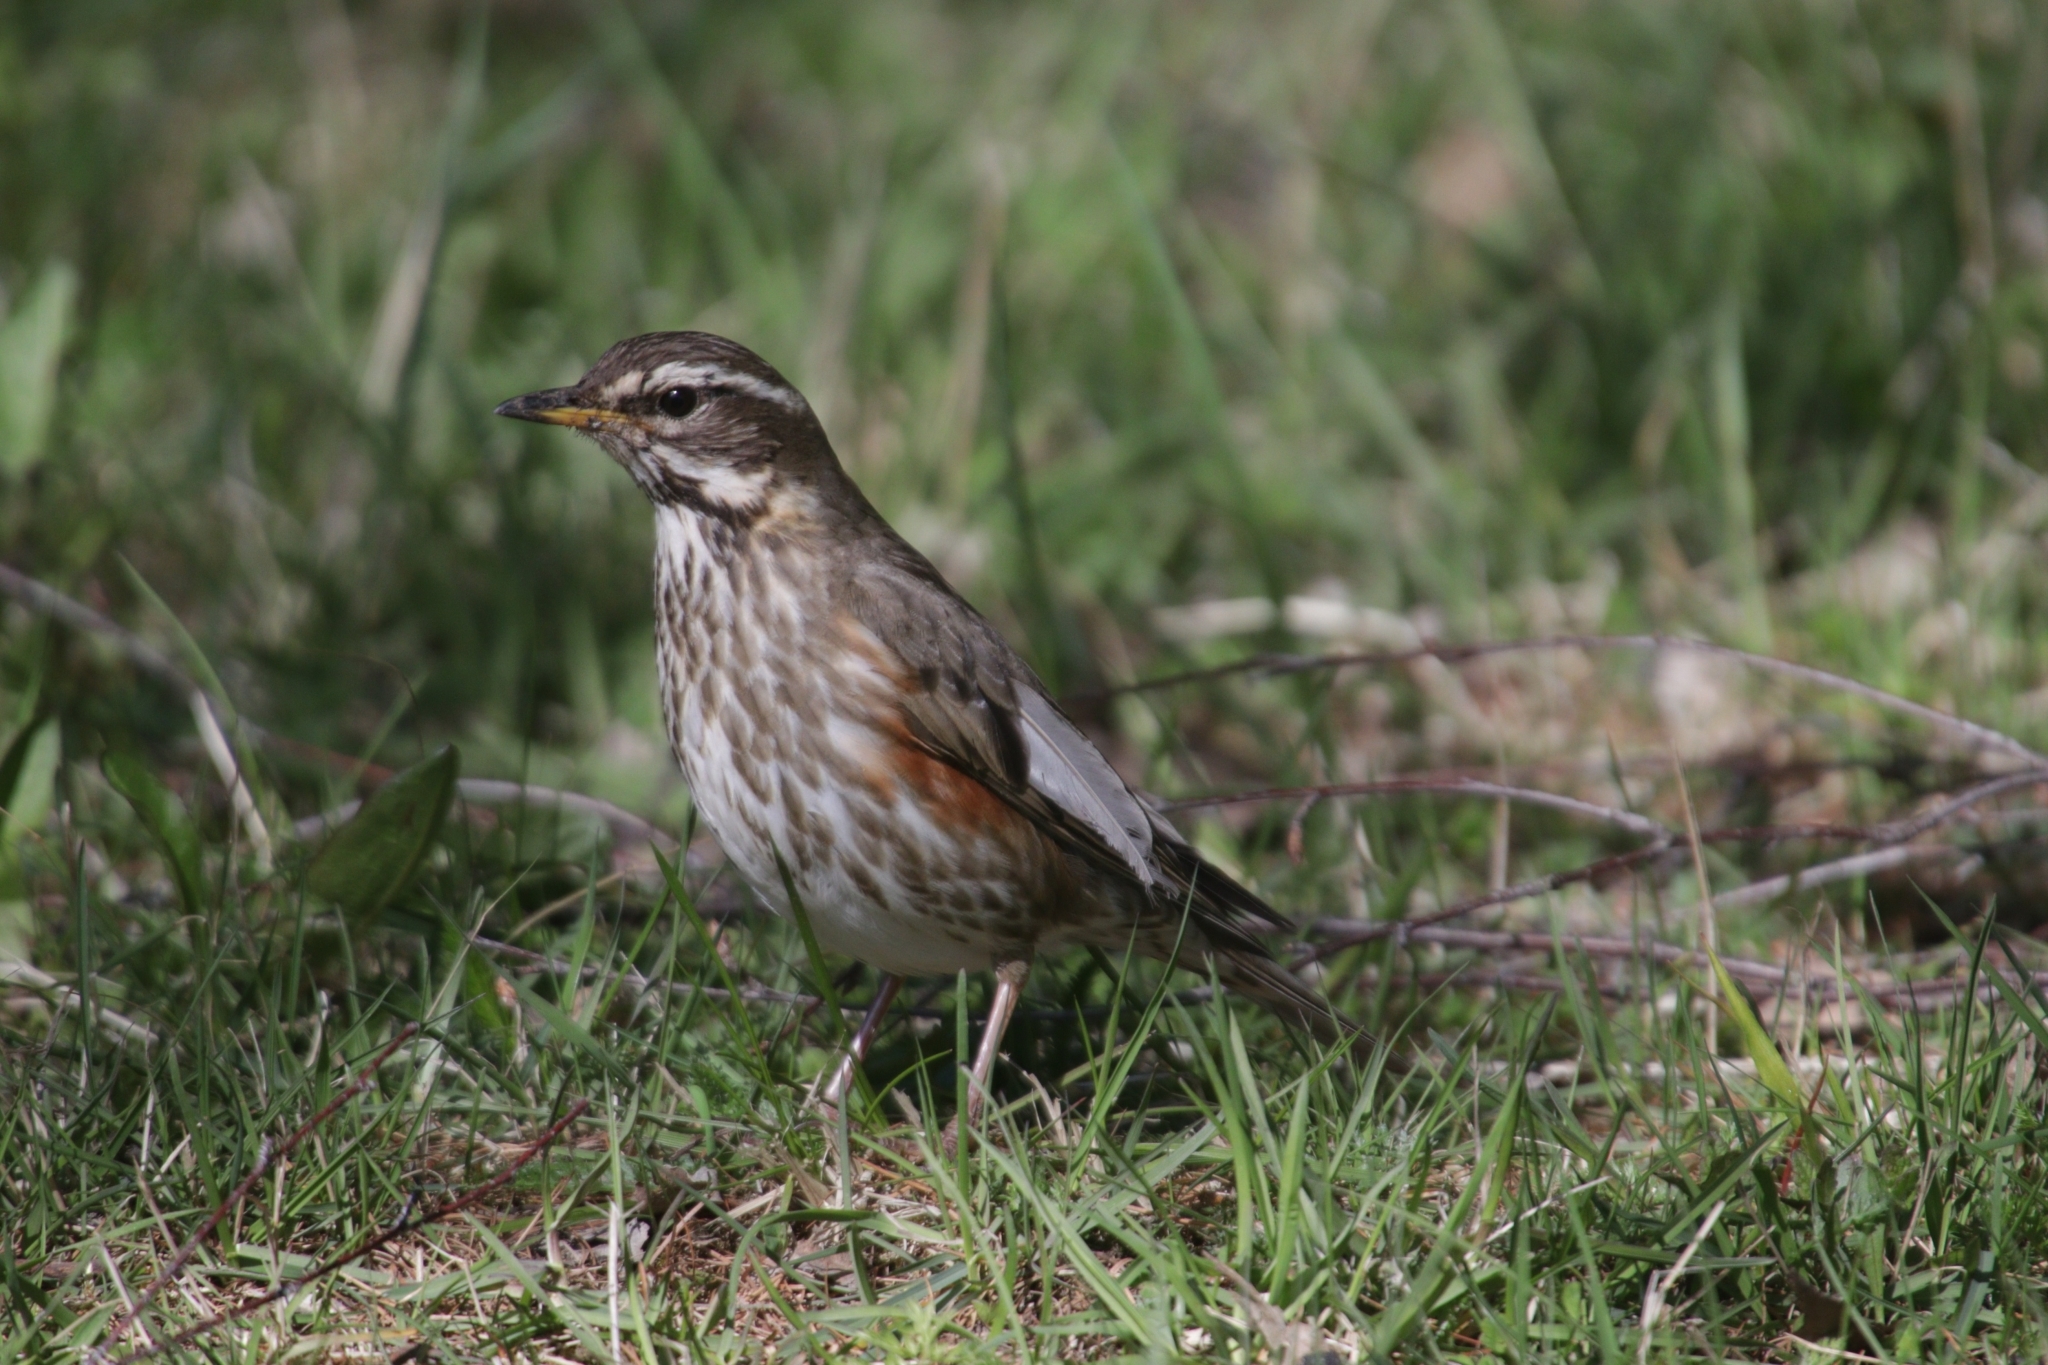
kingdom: Animalia
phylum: Chordata
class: Aves
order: Passeriformes
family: Turdidae
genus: Turdus
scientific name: Turdus iliacus
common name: Redwing
